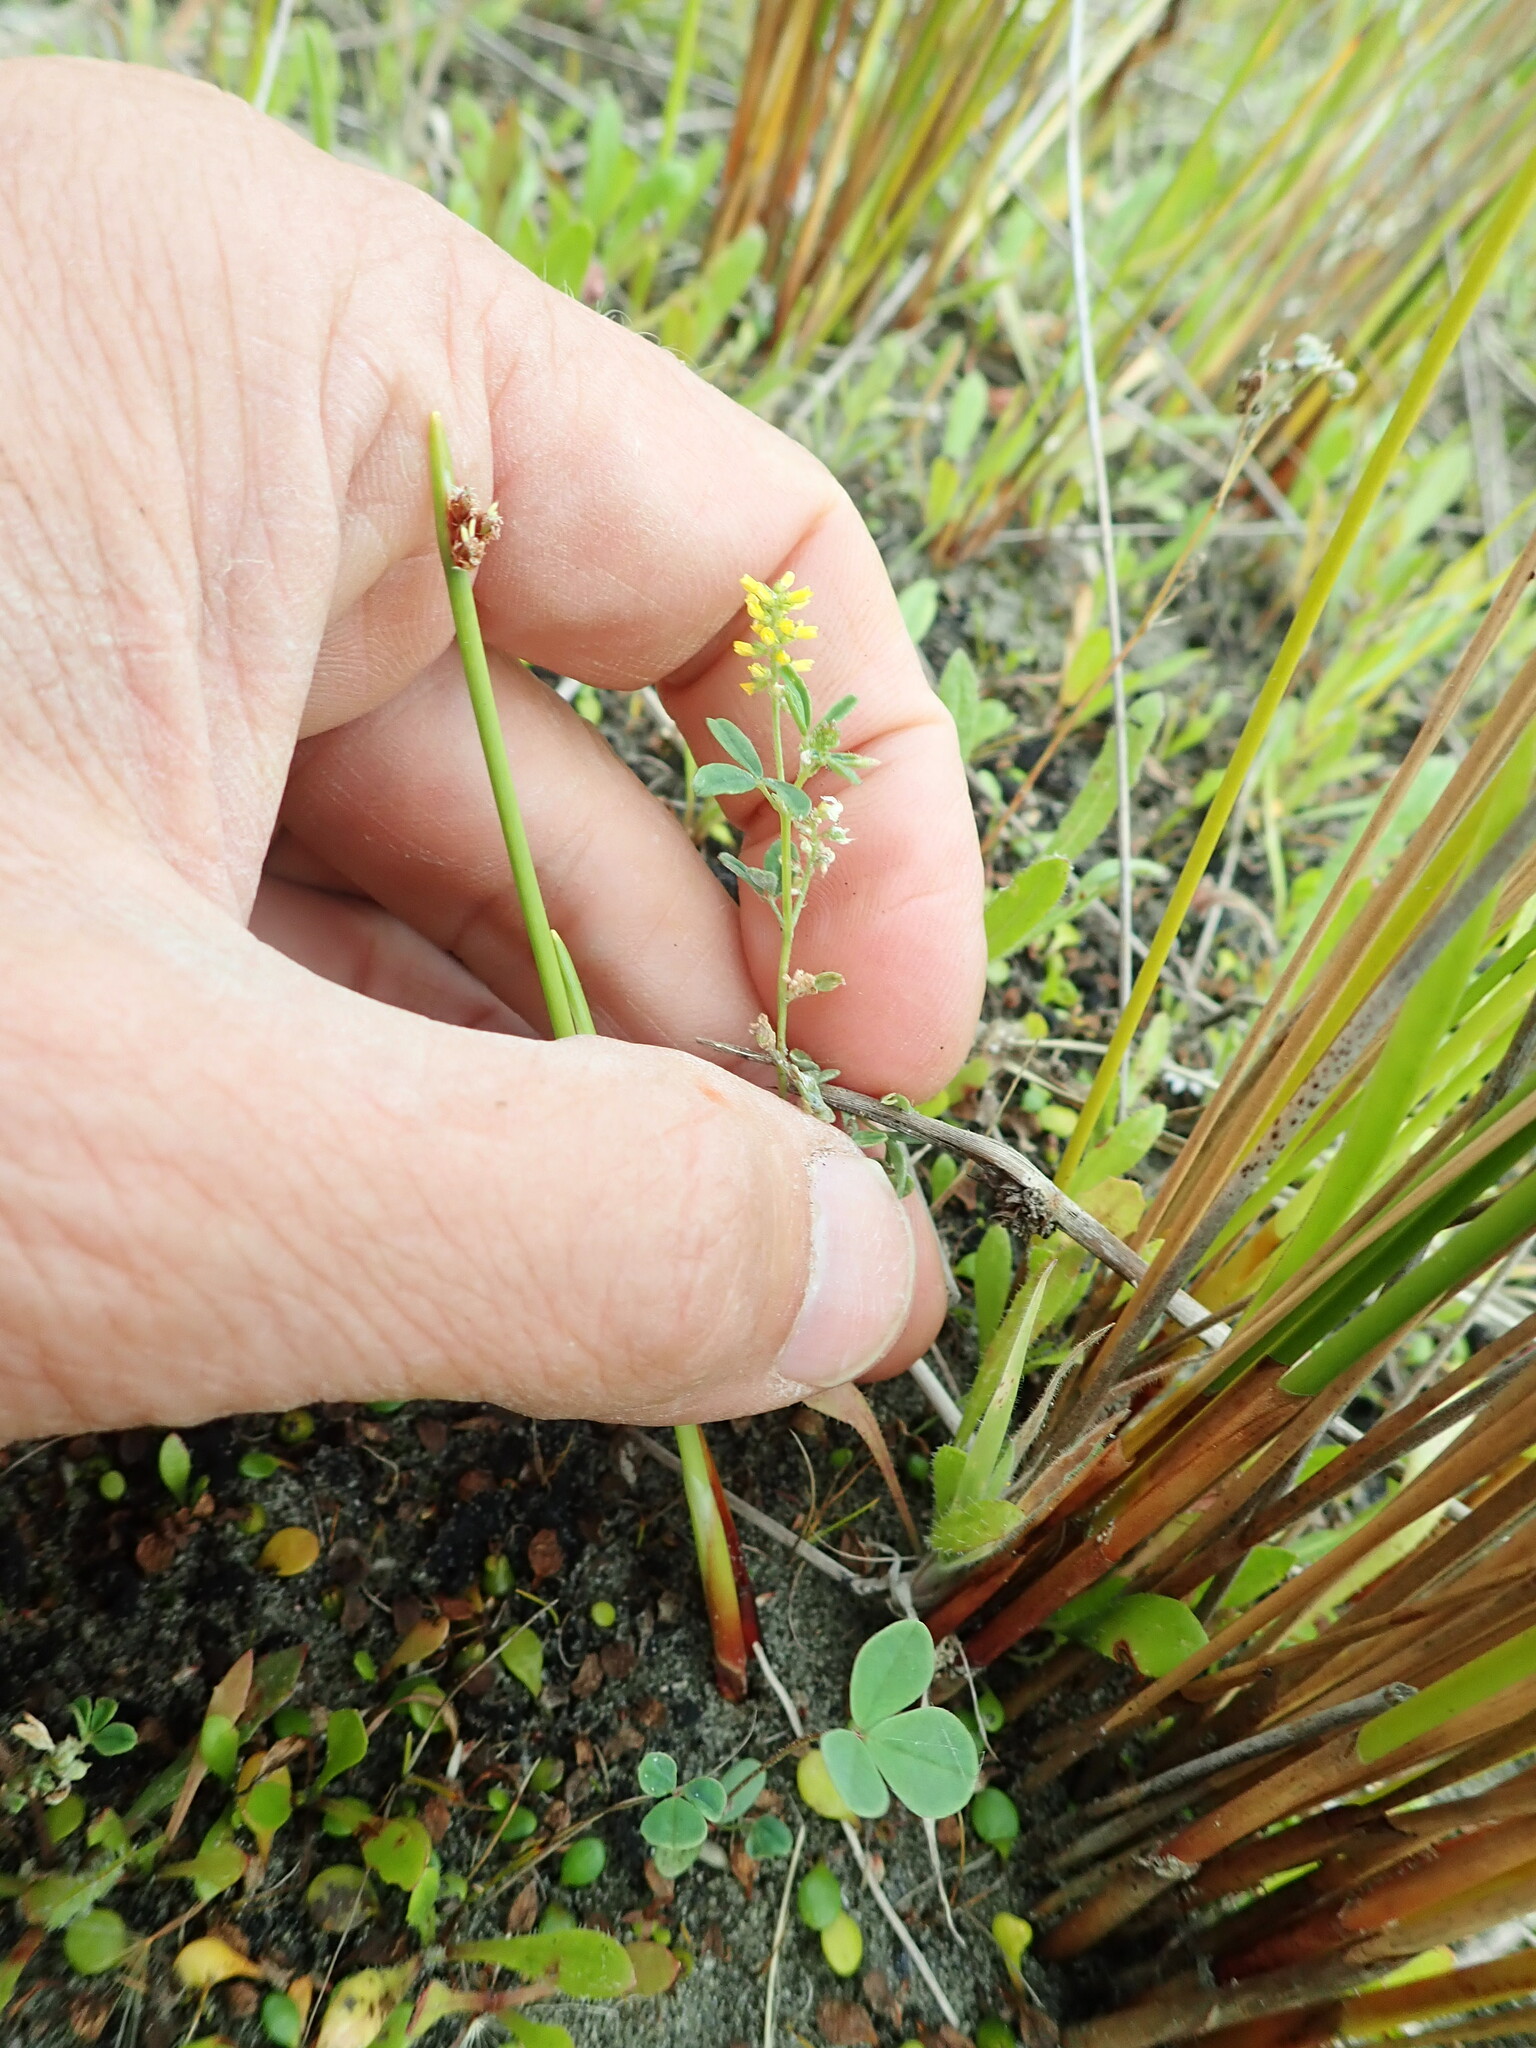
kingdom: Plantae
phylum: Tracheophyta
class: Magnoliopsida
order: Fabales
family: Fabaceae
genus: Melilotus
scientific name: Melilotus indicus
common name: Small melilot
